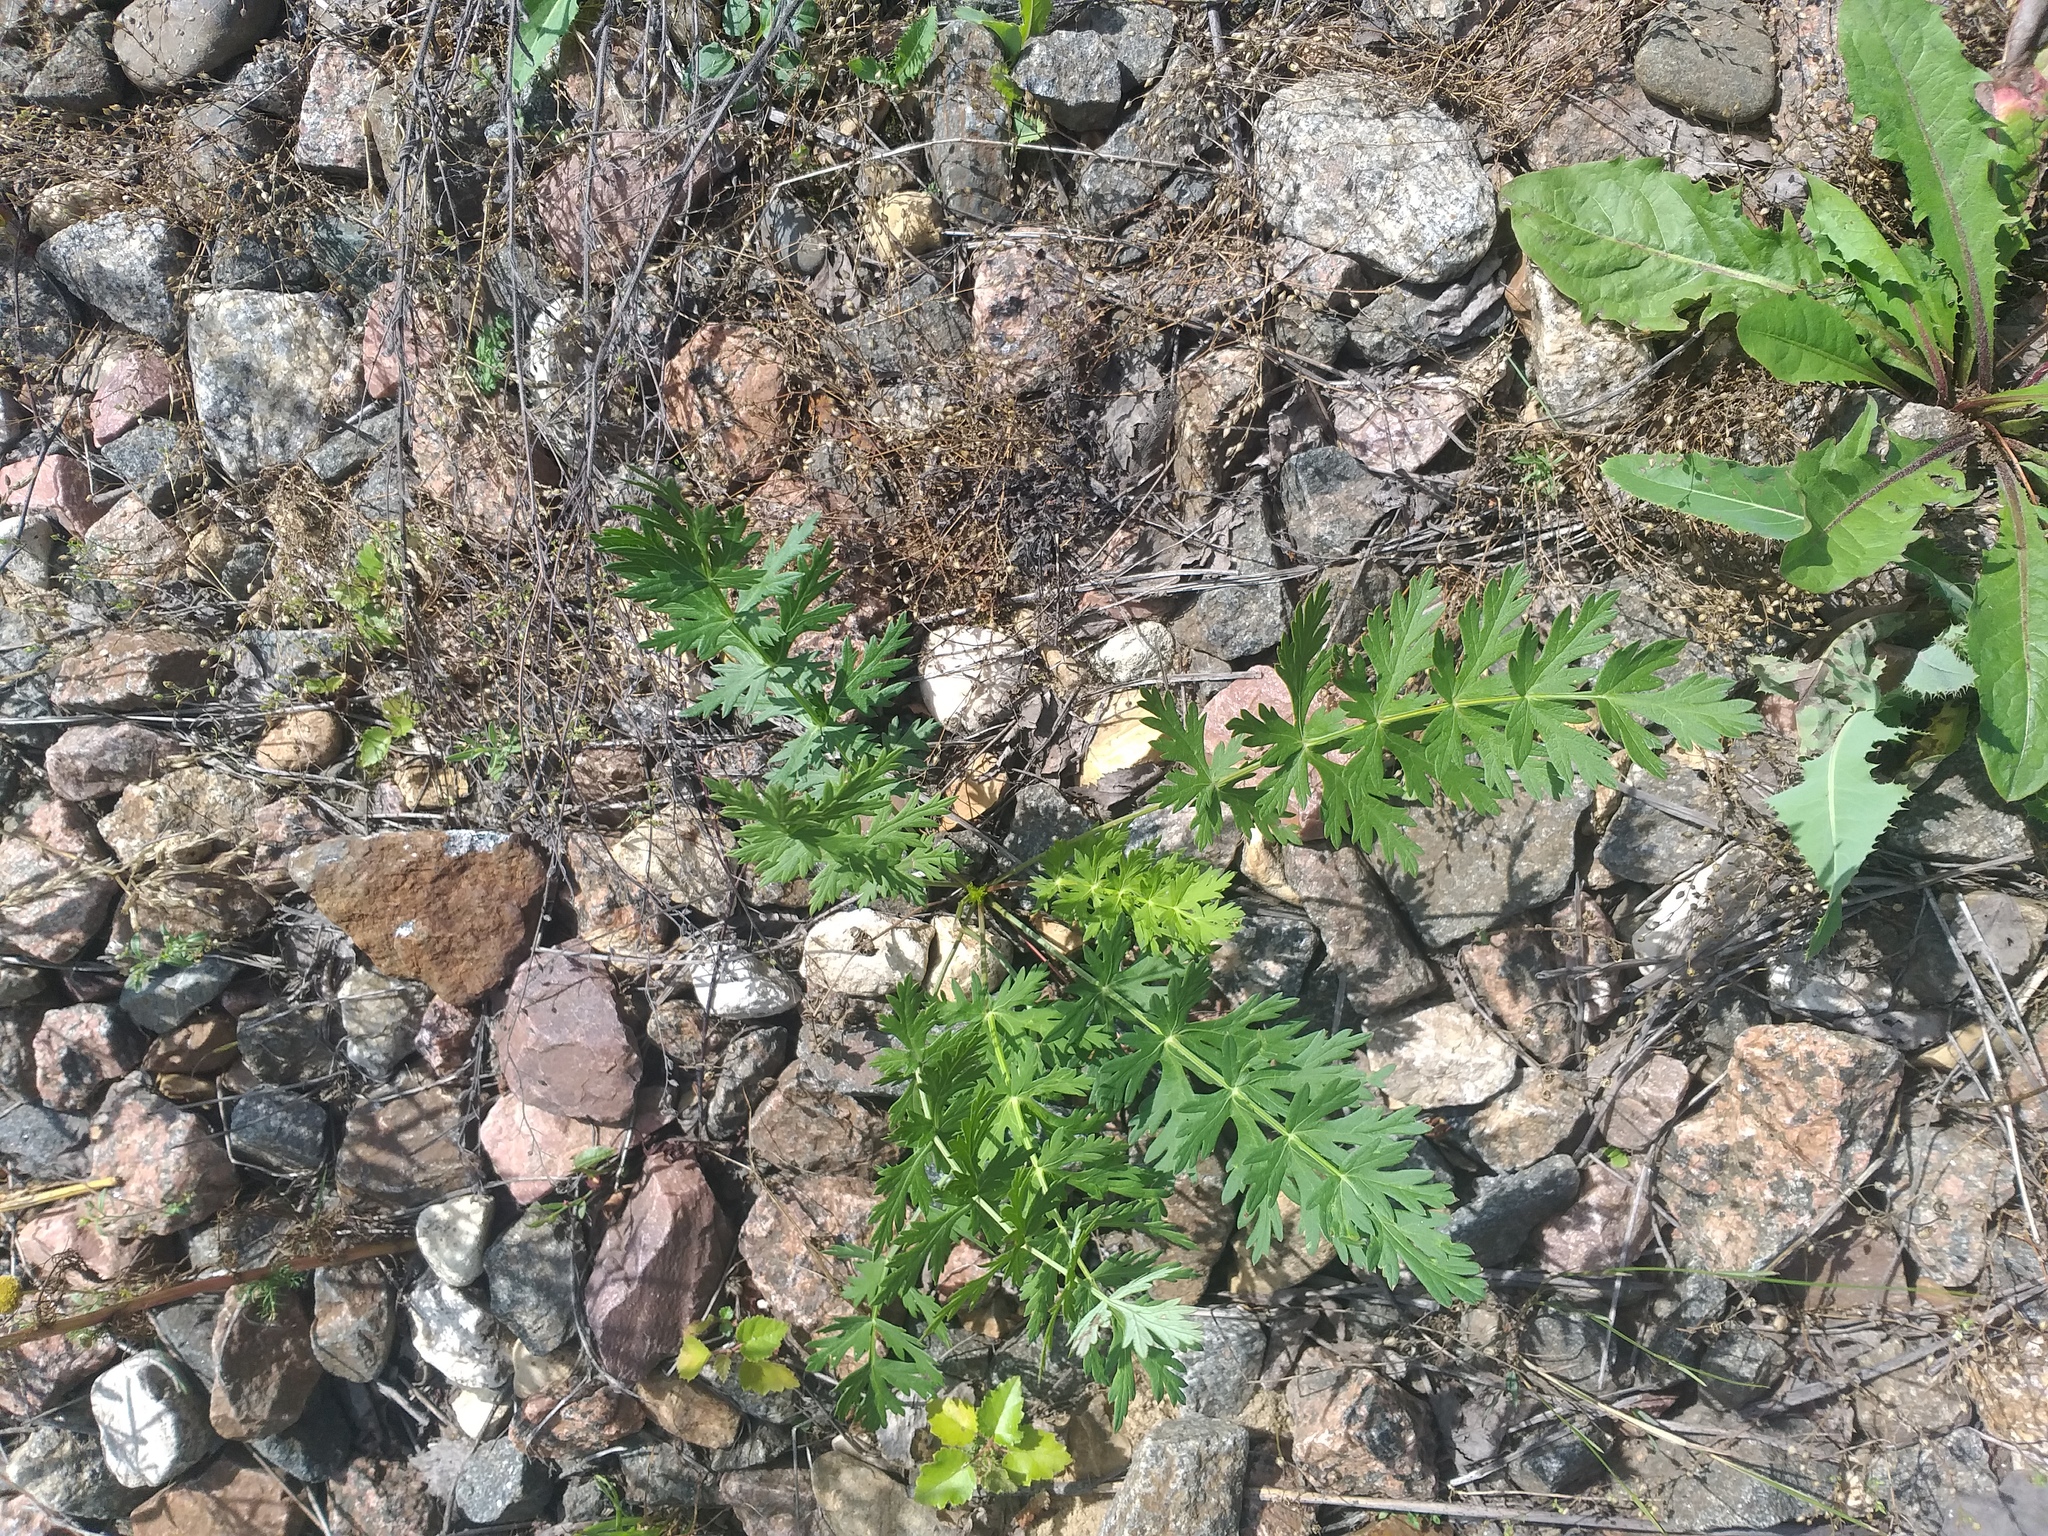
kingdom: Plantae
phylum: Tracheophyta
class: Magnoliopsida
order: Apiales
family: Apiaceae
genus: Seseli
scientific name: Seseli libanotis
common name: Mooncarrot
